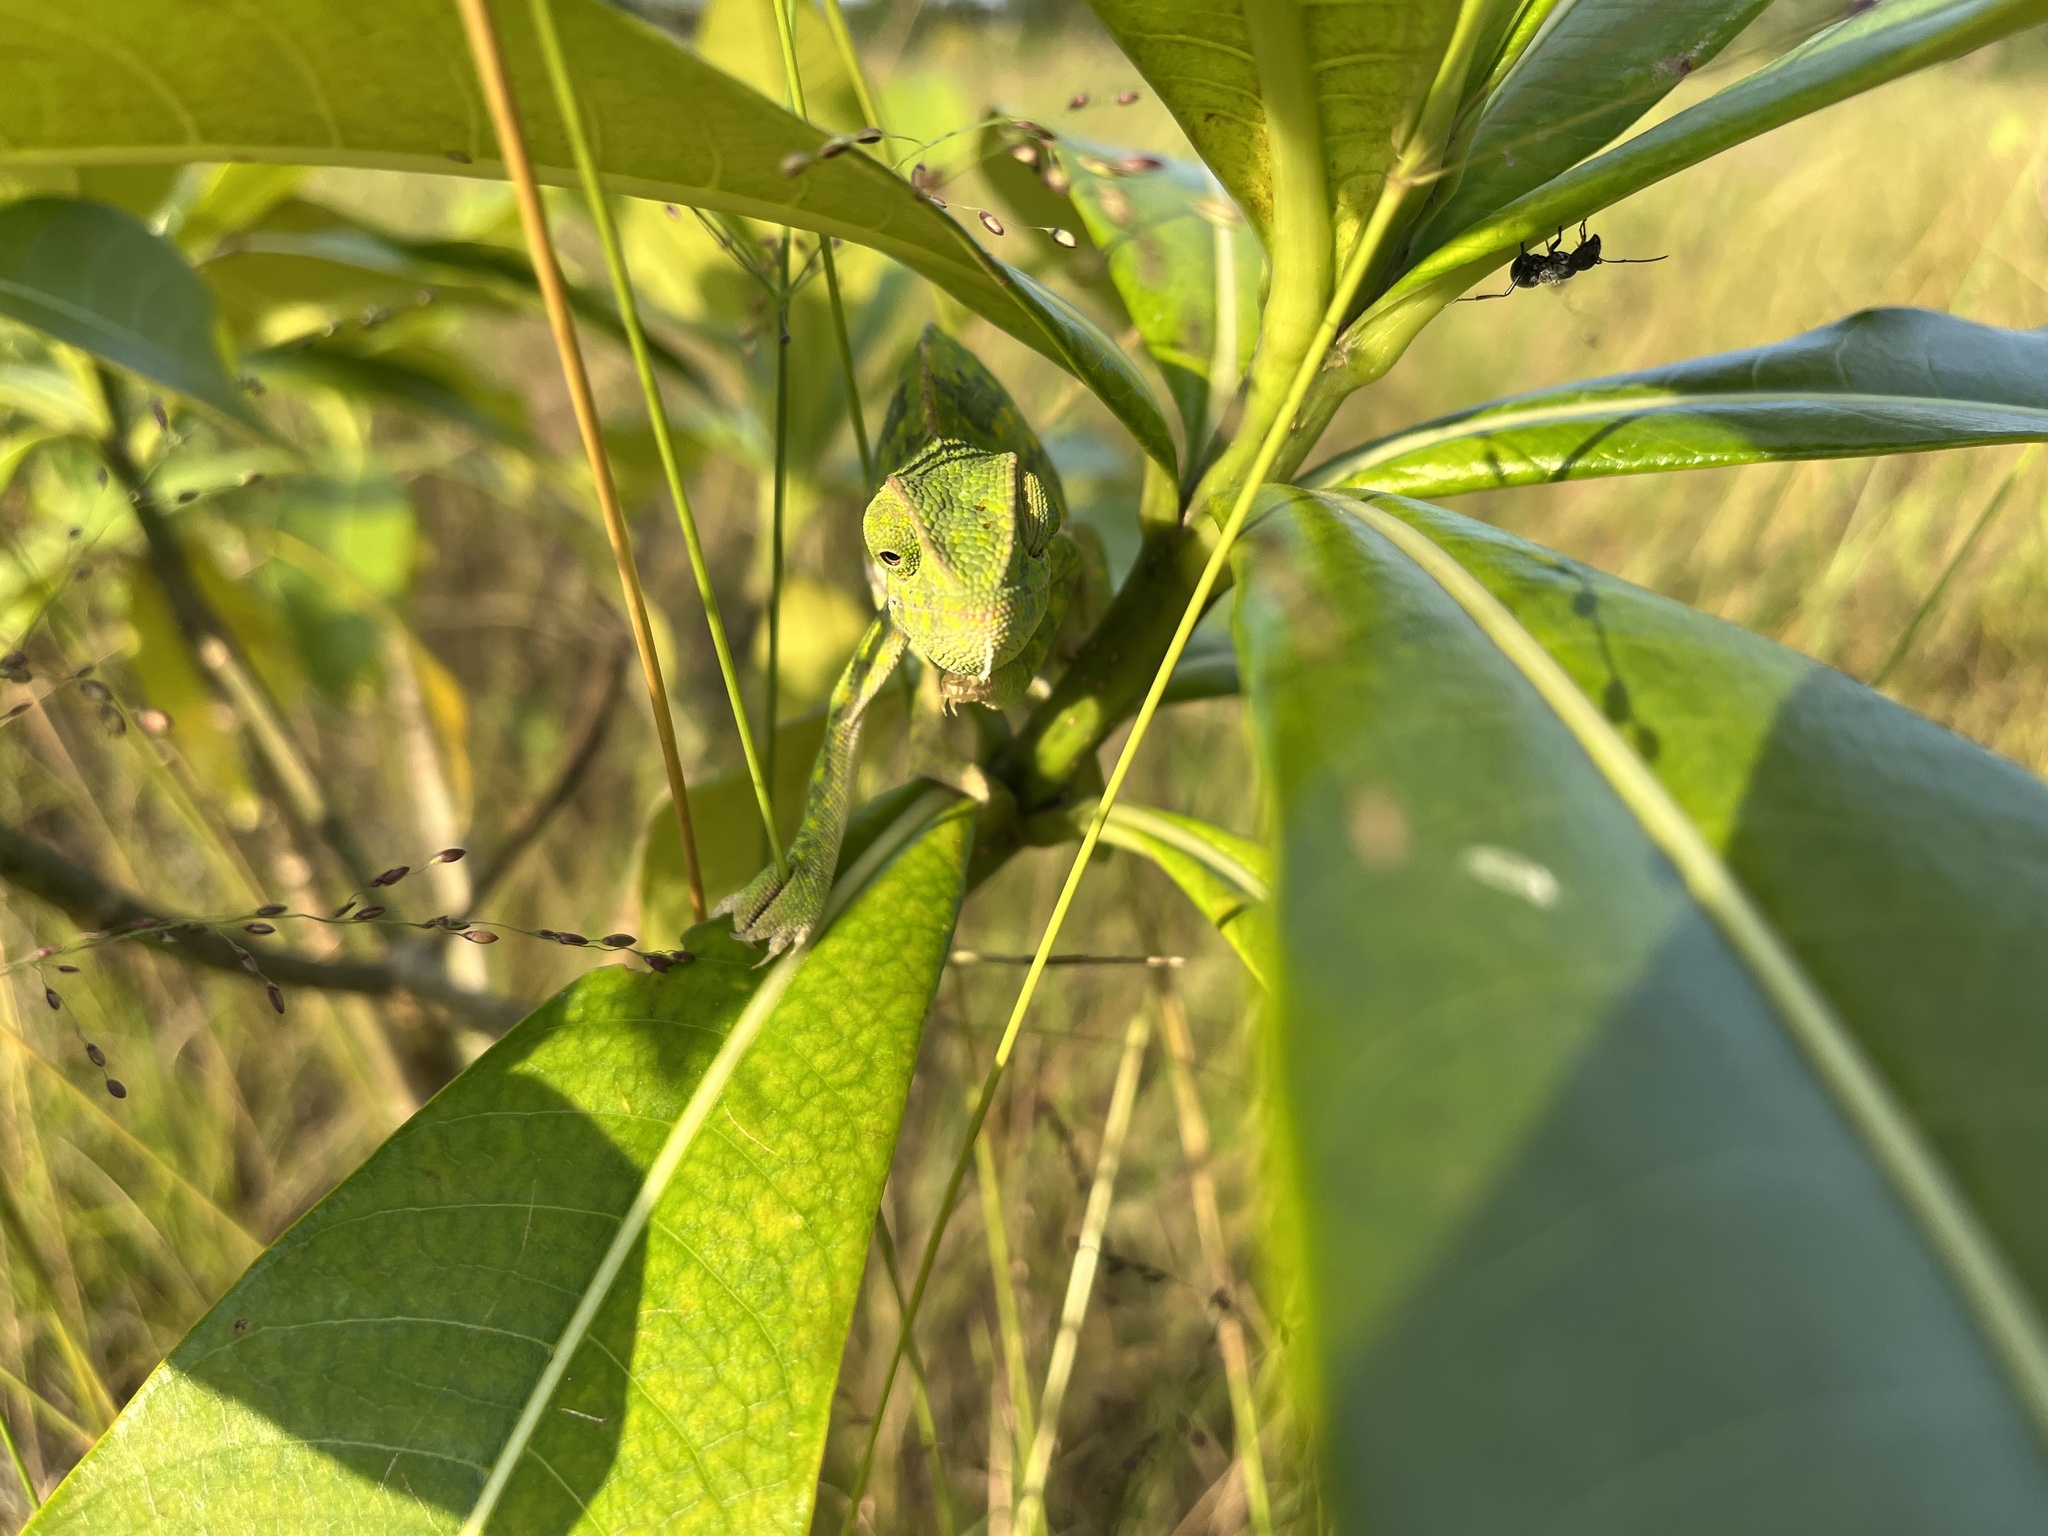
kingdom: Animalia
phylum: Chordata
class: Squamata
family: Chamaeleonidae
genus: Chamaeleo
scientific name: Chamaeleo dilepis
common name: Flapneck chameleon
